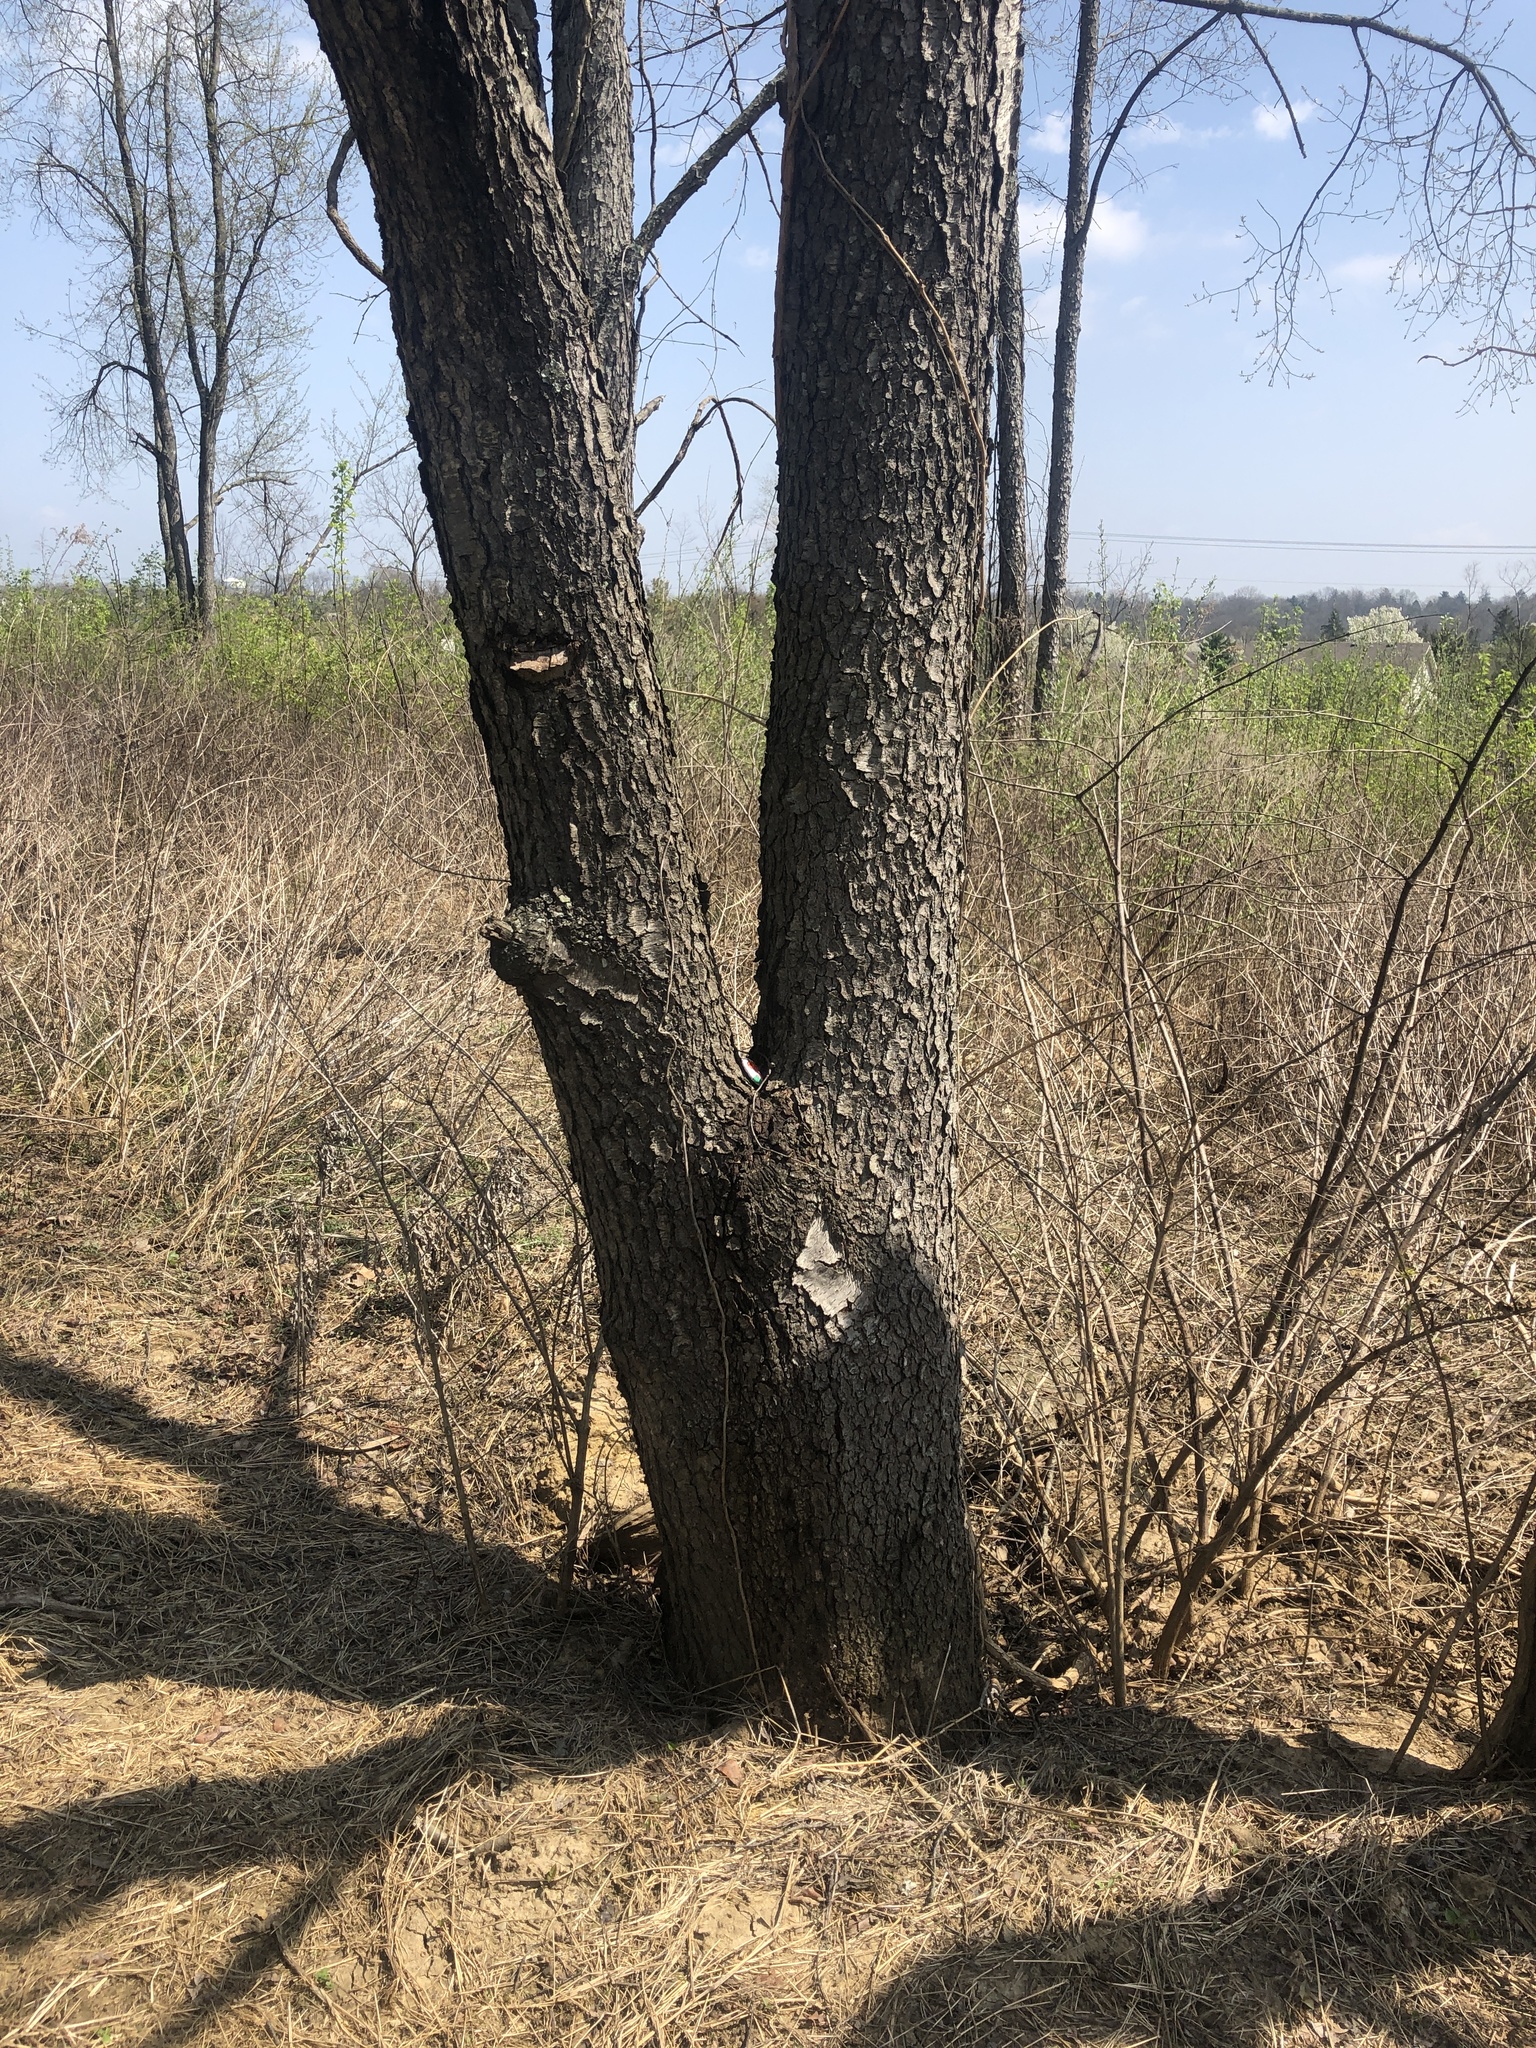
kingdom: Plantae
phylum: Tracheophyta
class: Magnoliopsida
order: Rosales
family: Rosaceae
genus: Prunus
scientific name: Prunus serotina
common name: Black cherry
